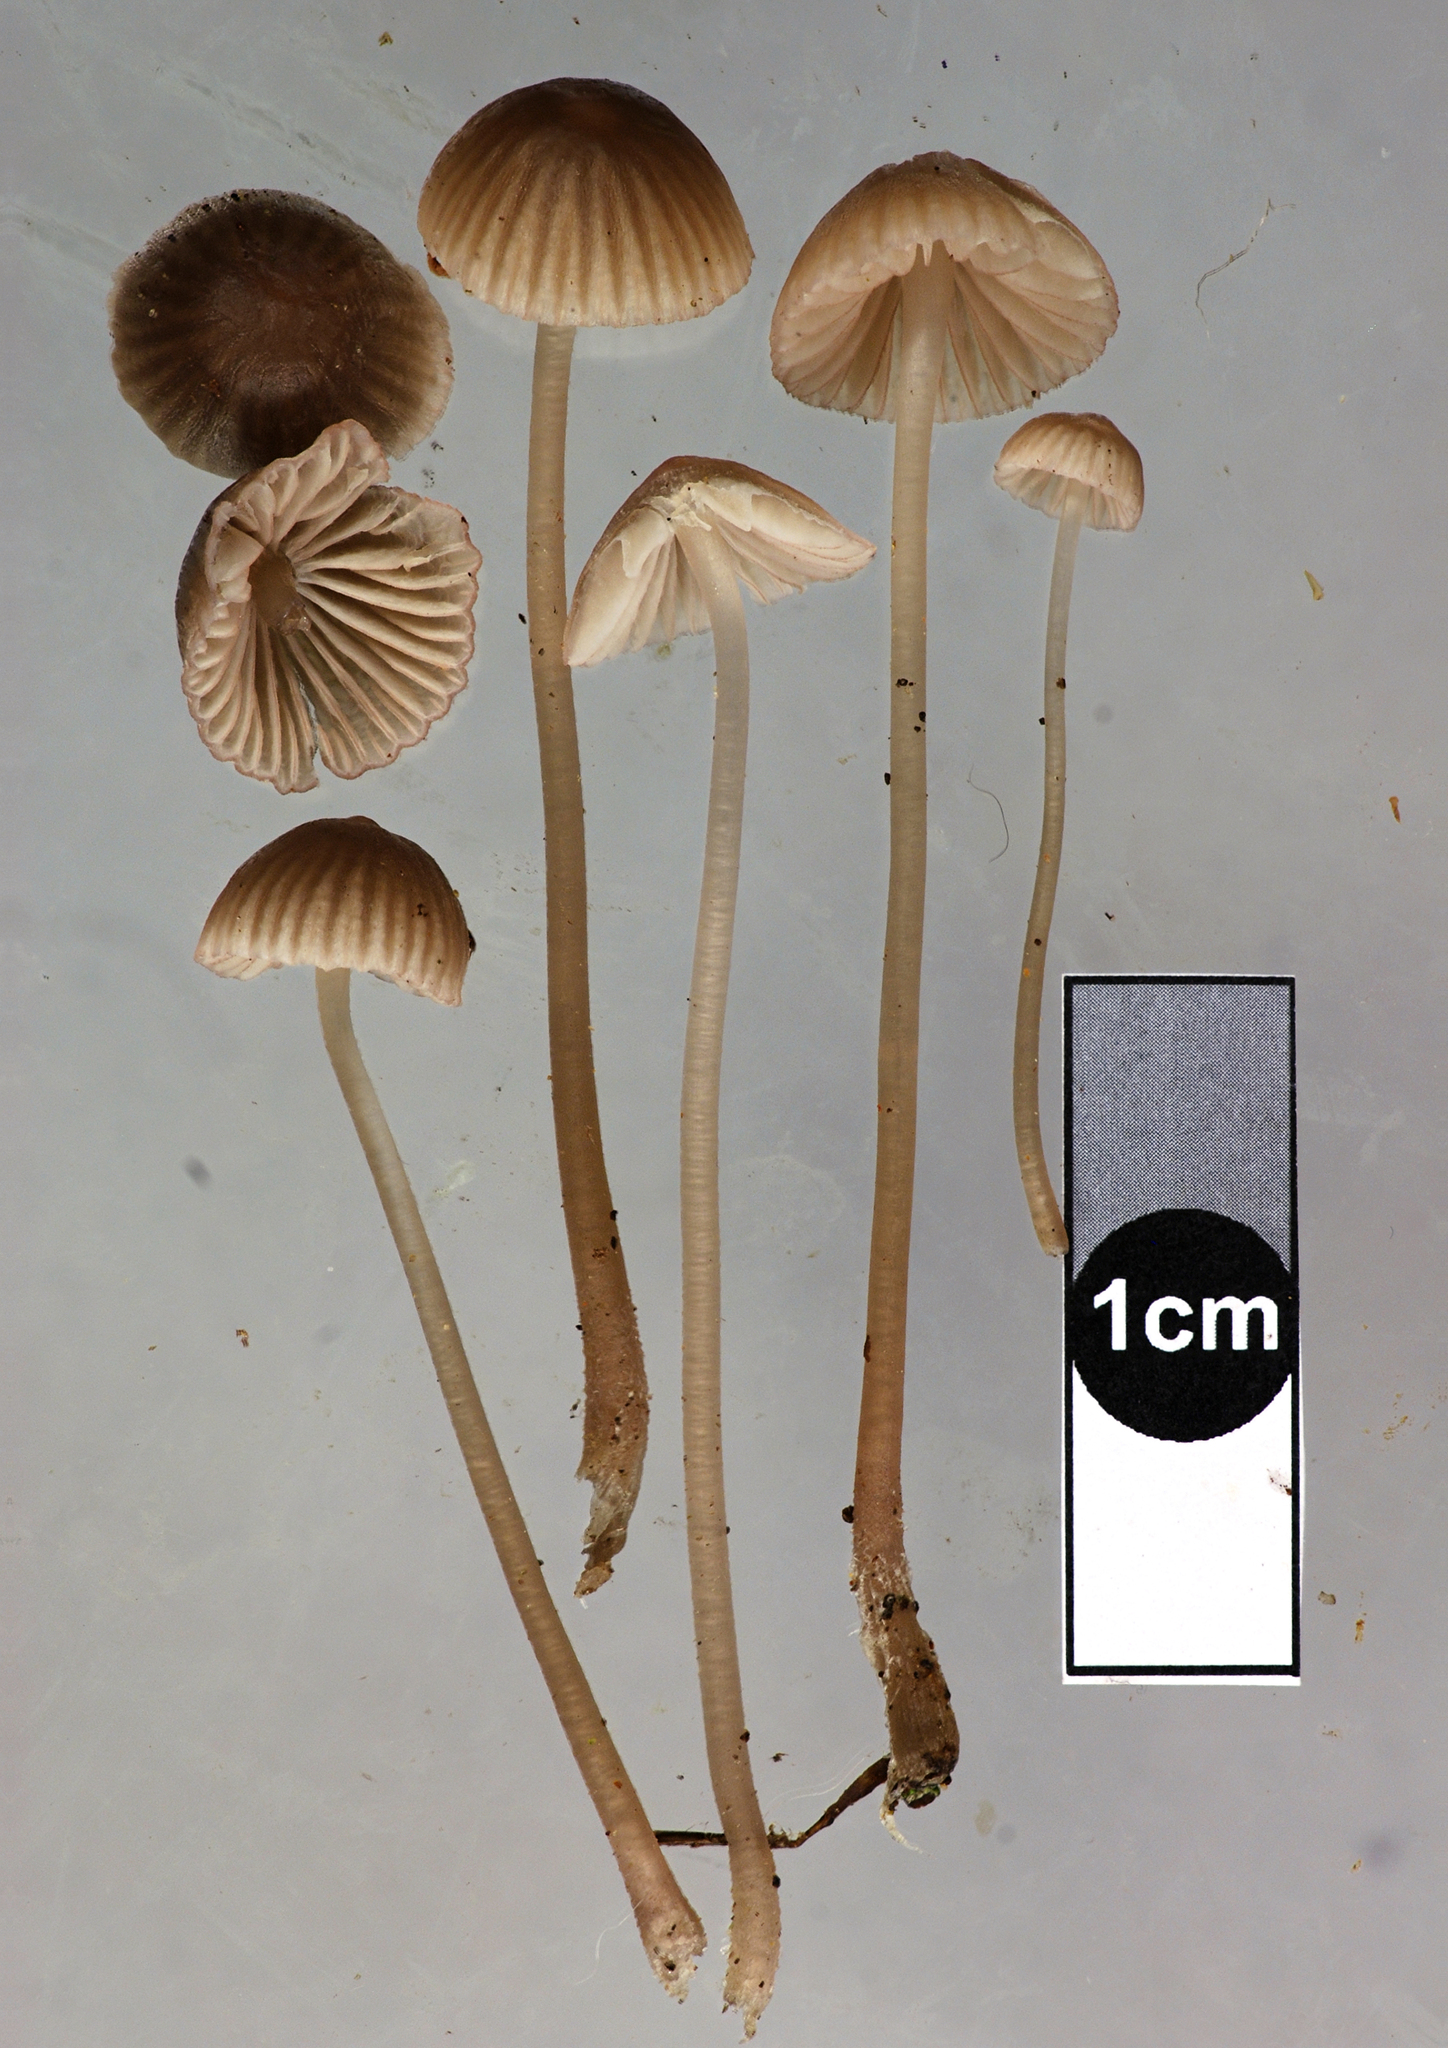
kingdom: Fungi
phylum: Basidiomycota
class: Agaricomycetes
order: Agaricales
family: Mycenaceae
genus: Mycena
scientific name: Mycena capillaripes
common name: Pinkedge bonnet
